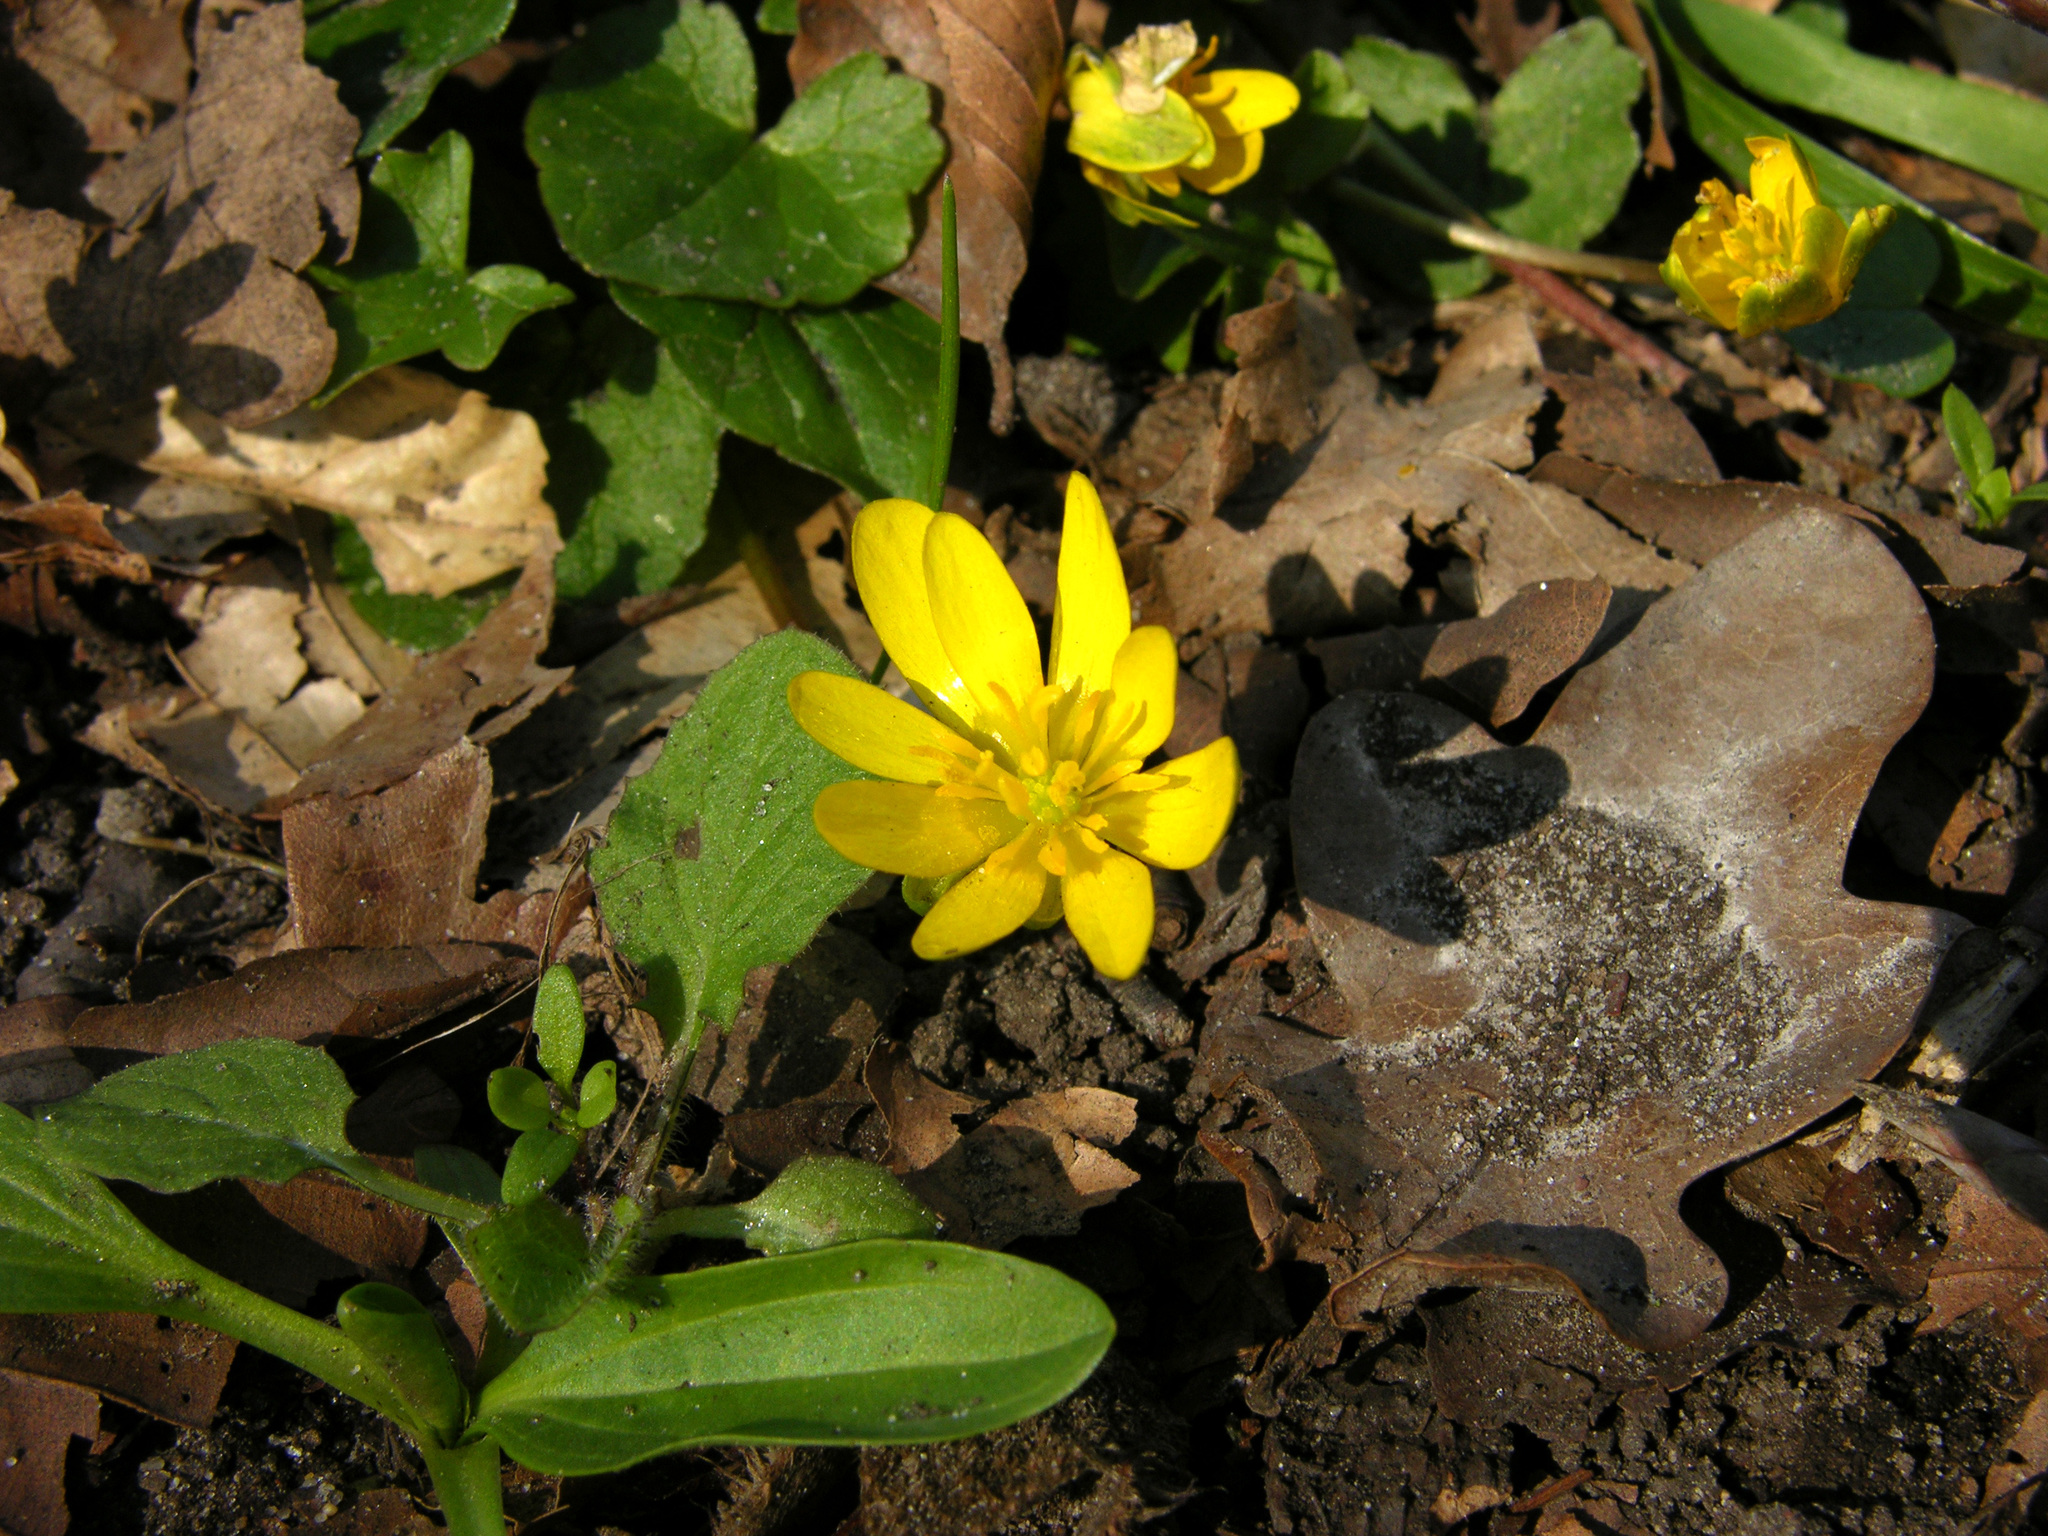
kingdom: Plantae
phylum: Tracheophyta
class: Magnoliopsida
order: Ranunculales
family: Ranunculaceae
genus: Ficaria
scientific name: Ficaria verna
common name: Lesser celandine
